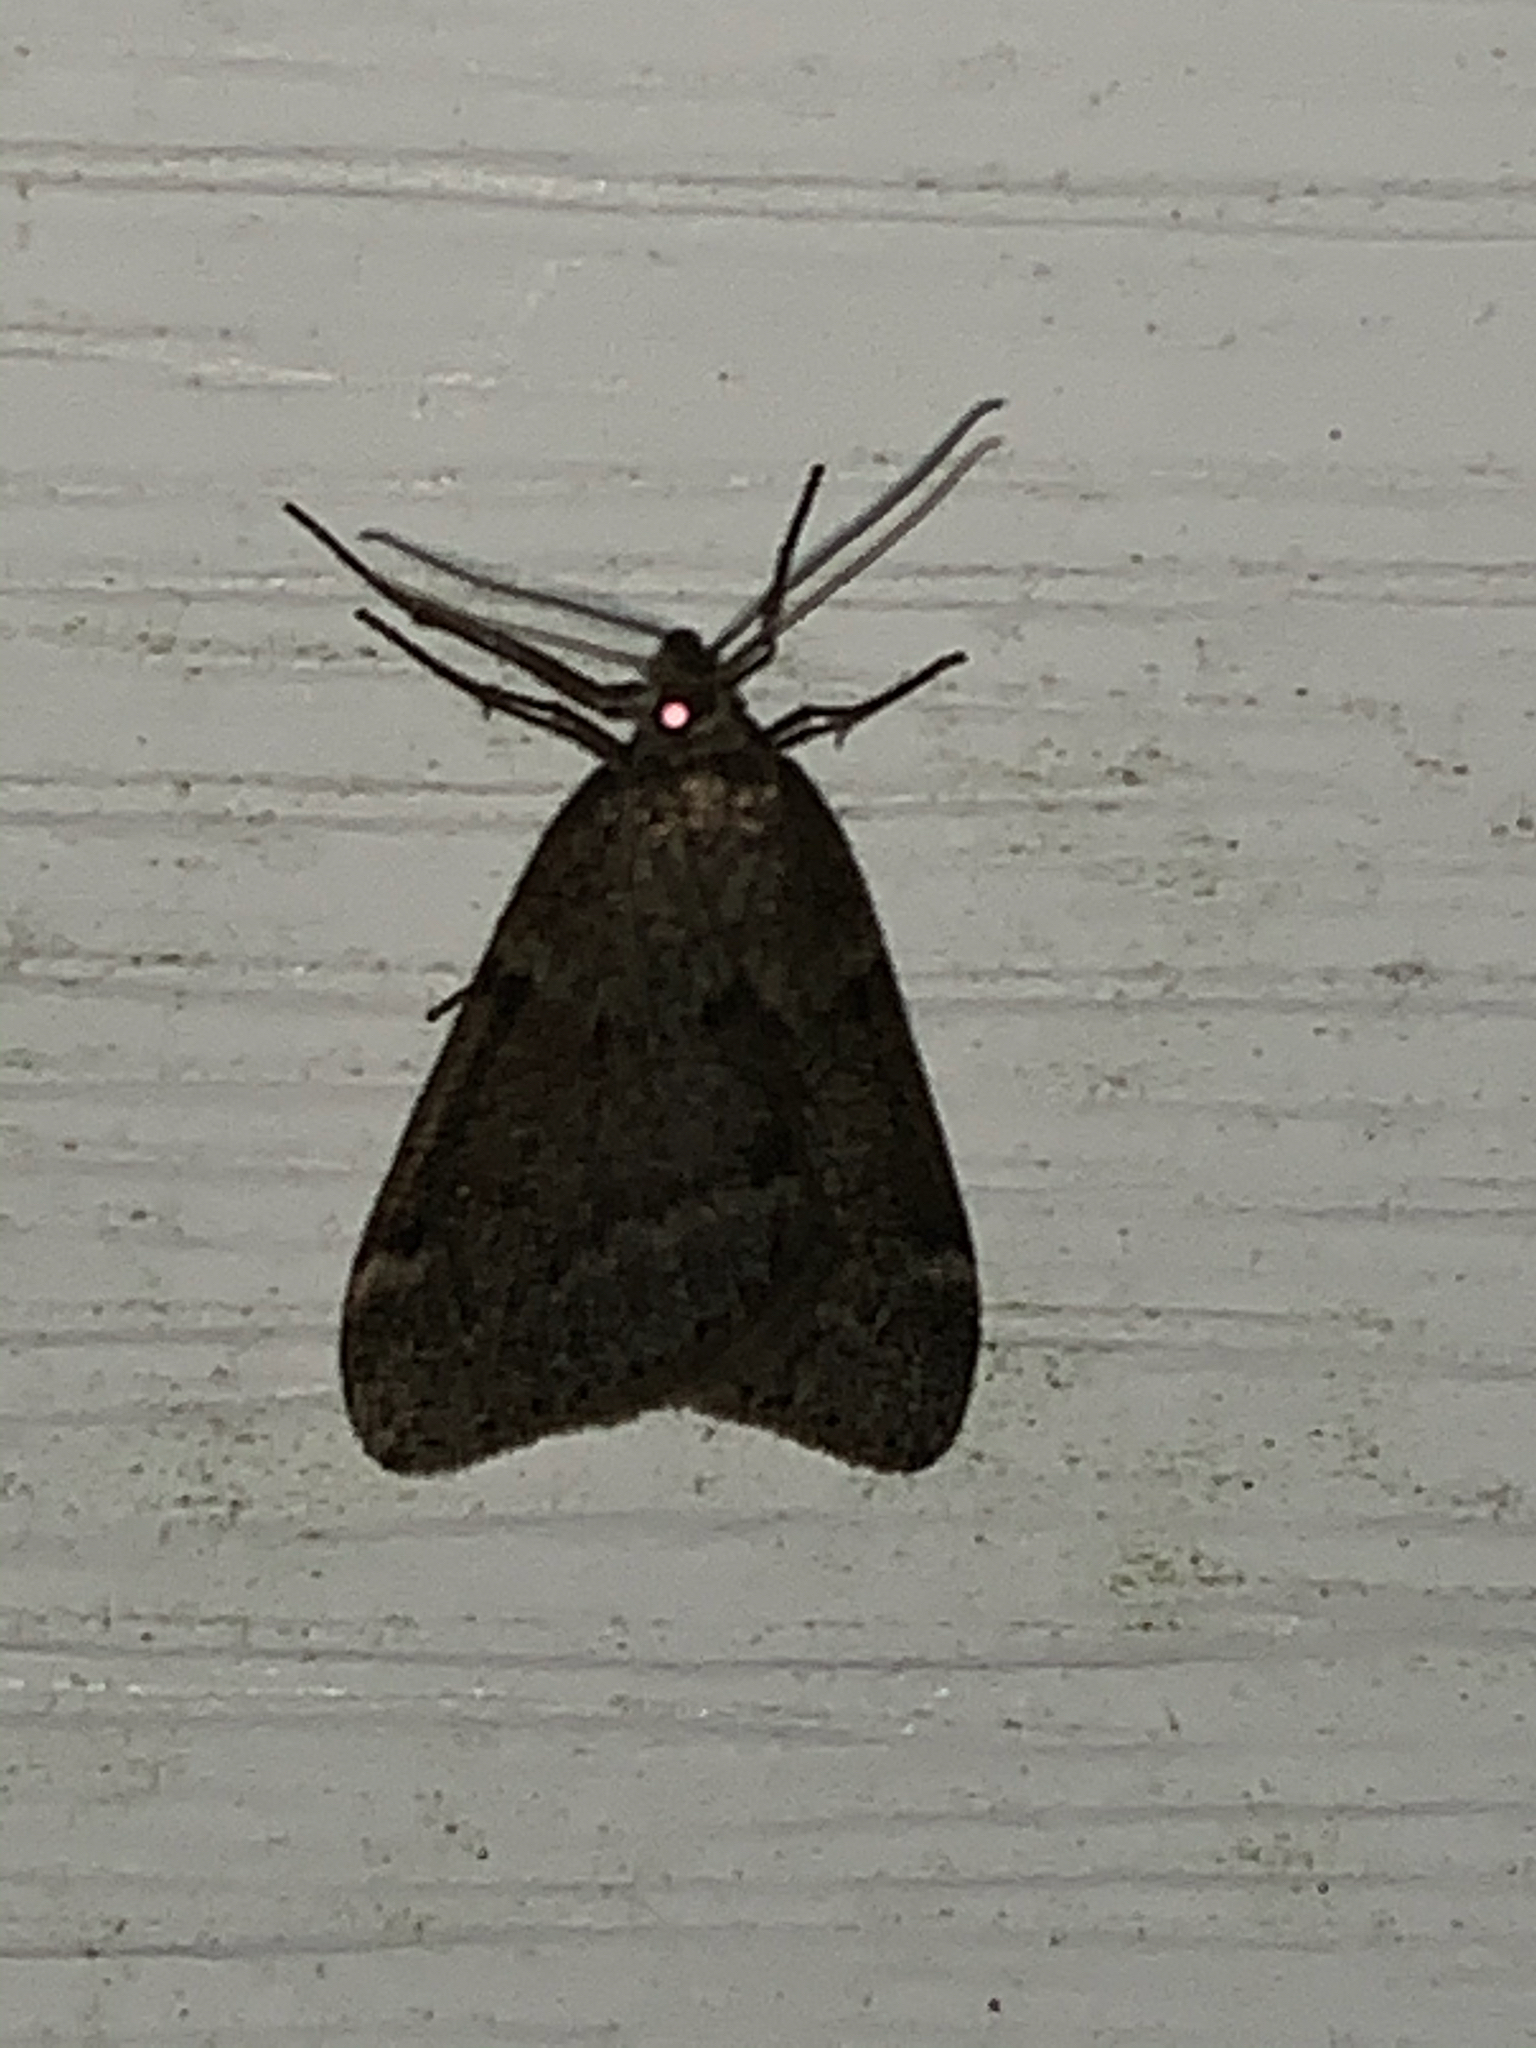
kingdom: Animalia
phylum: Arthropoda
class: Insecta
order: Lepidoptera
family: Geometridae
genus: Alsophila
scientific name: Alsophila pometaria
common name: Fall cankerworm
